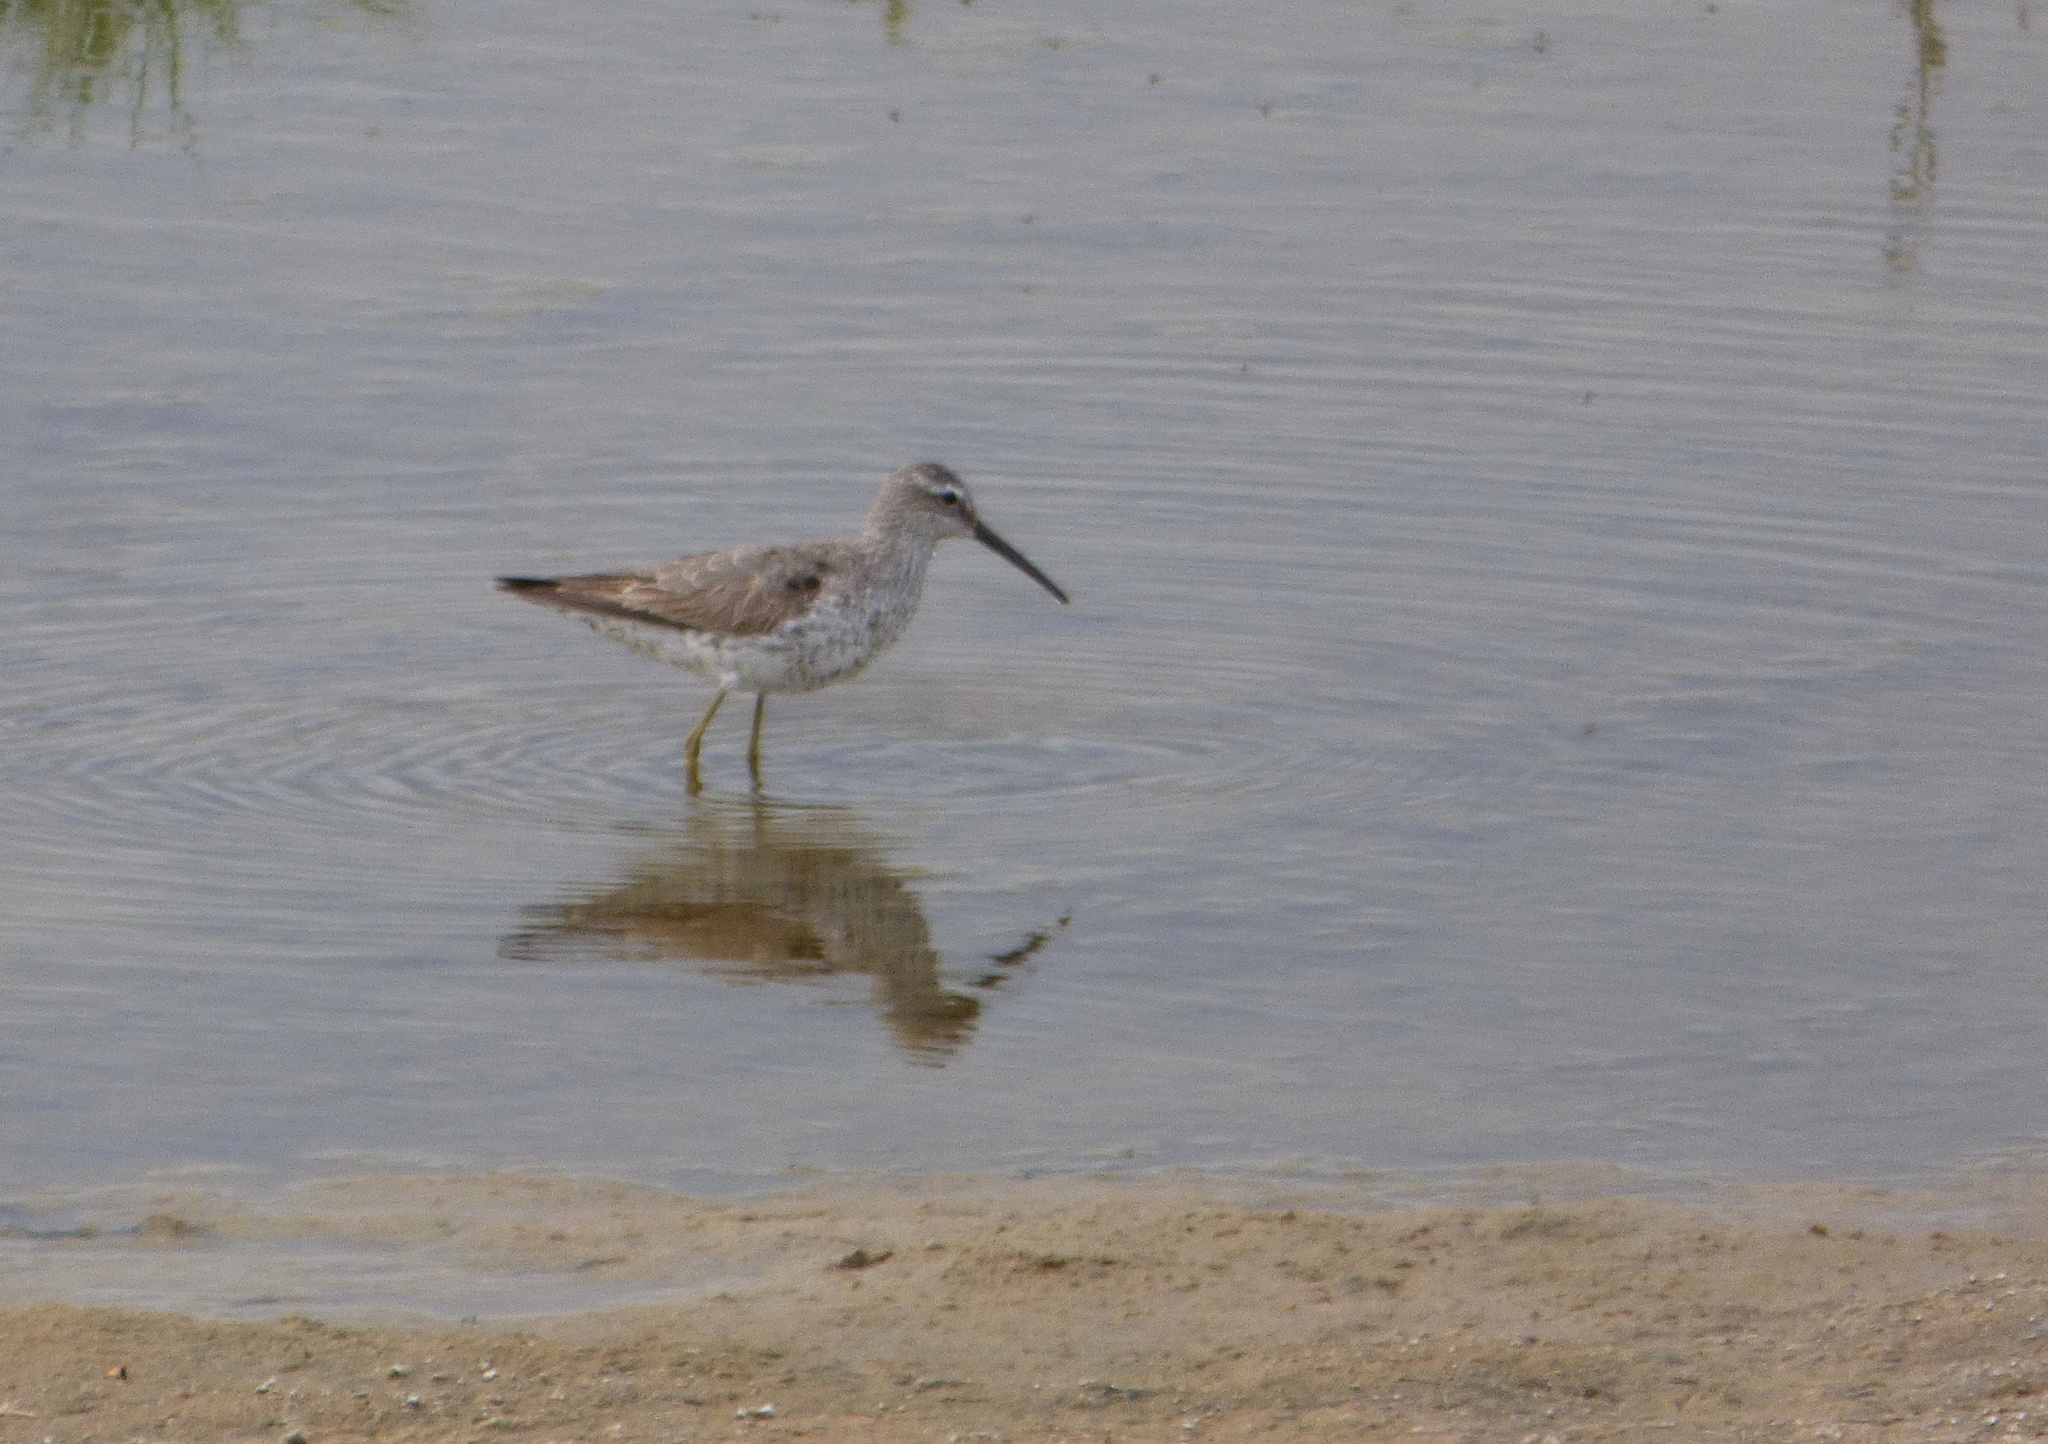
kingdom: Animalia
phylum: Chordata
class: Aves
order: Charadriiformes
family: Scolopacidae
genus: Calidris
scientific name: Calidris himantopus
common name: Stilt sandpiper
